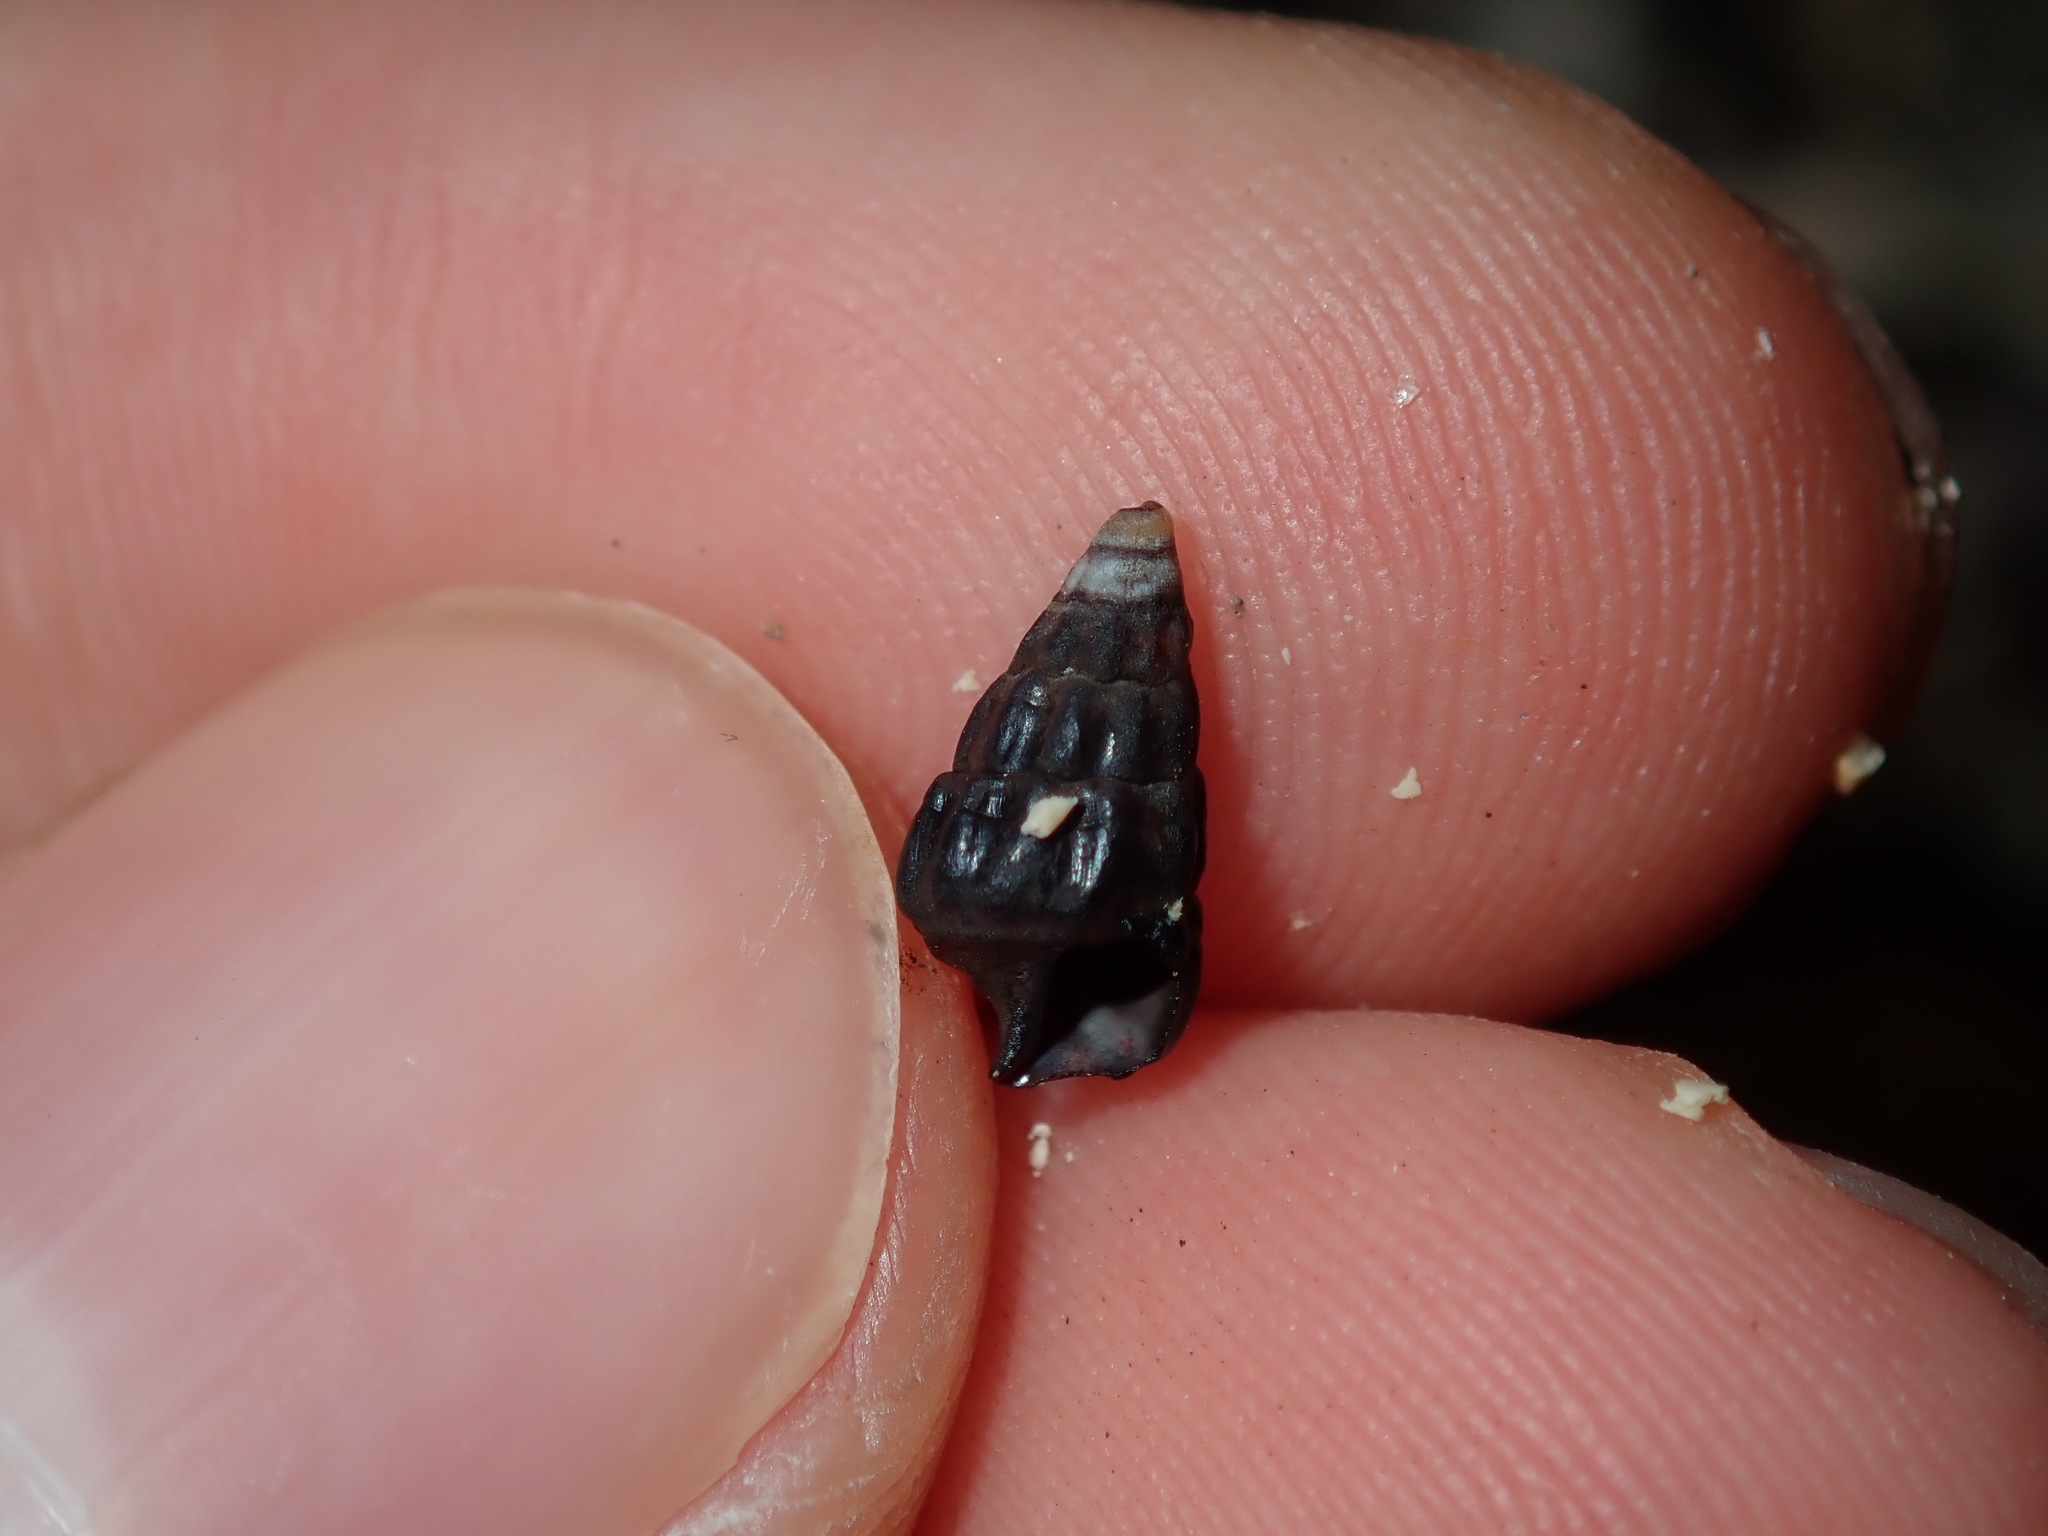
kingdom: Animalia
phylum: Mollusca
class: Gastropoda
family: Batillariidae
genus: Zeacumantus
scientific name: Zeacumantus subcarinatus
